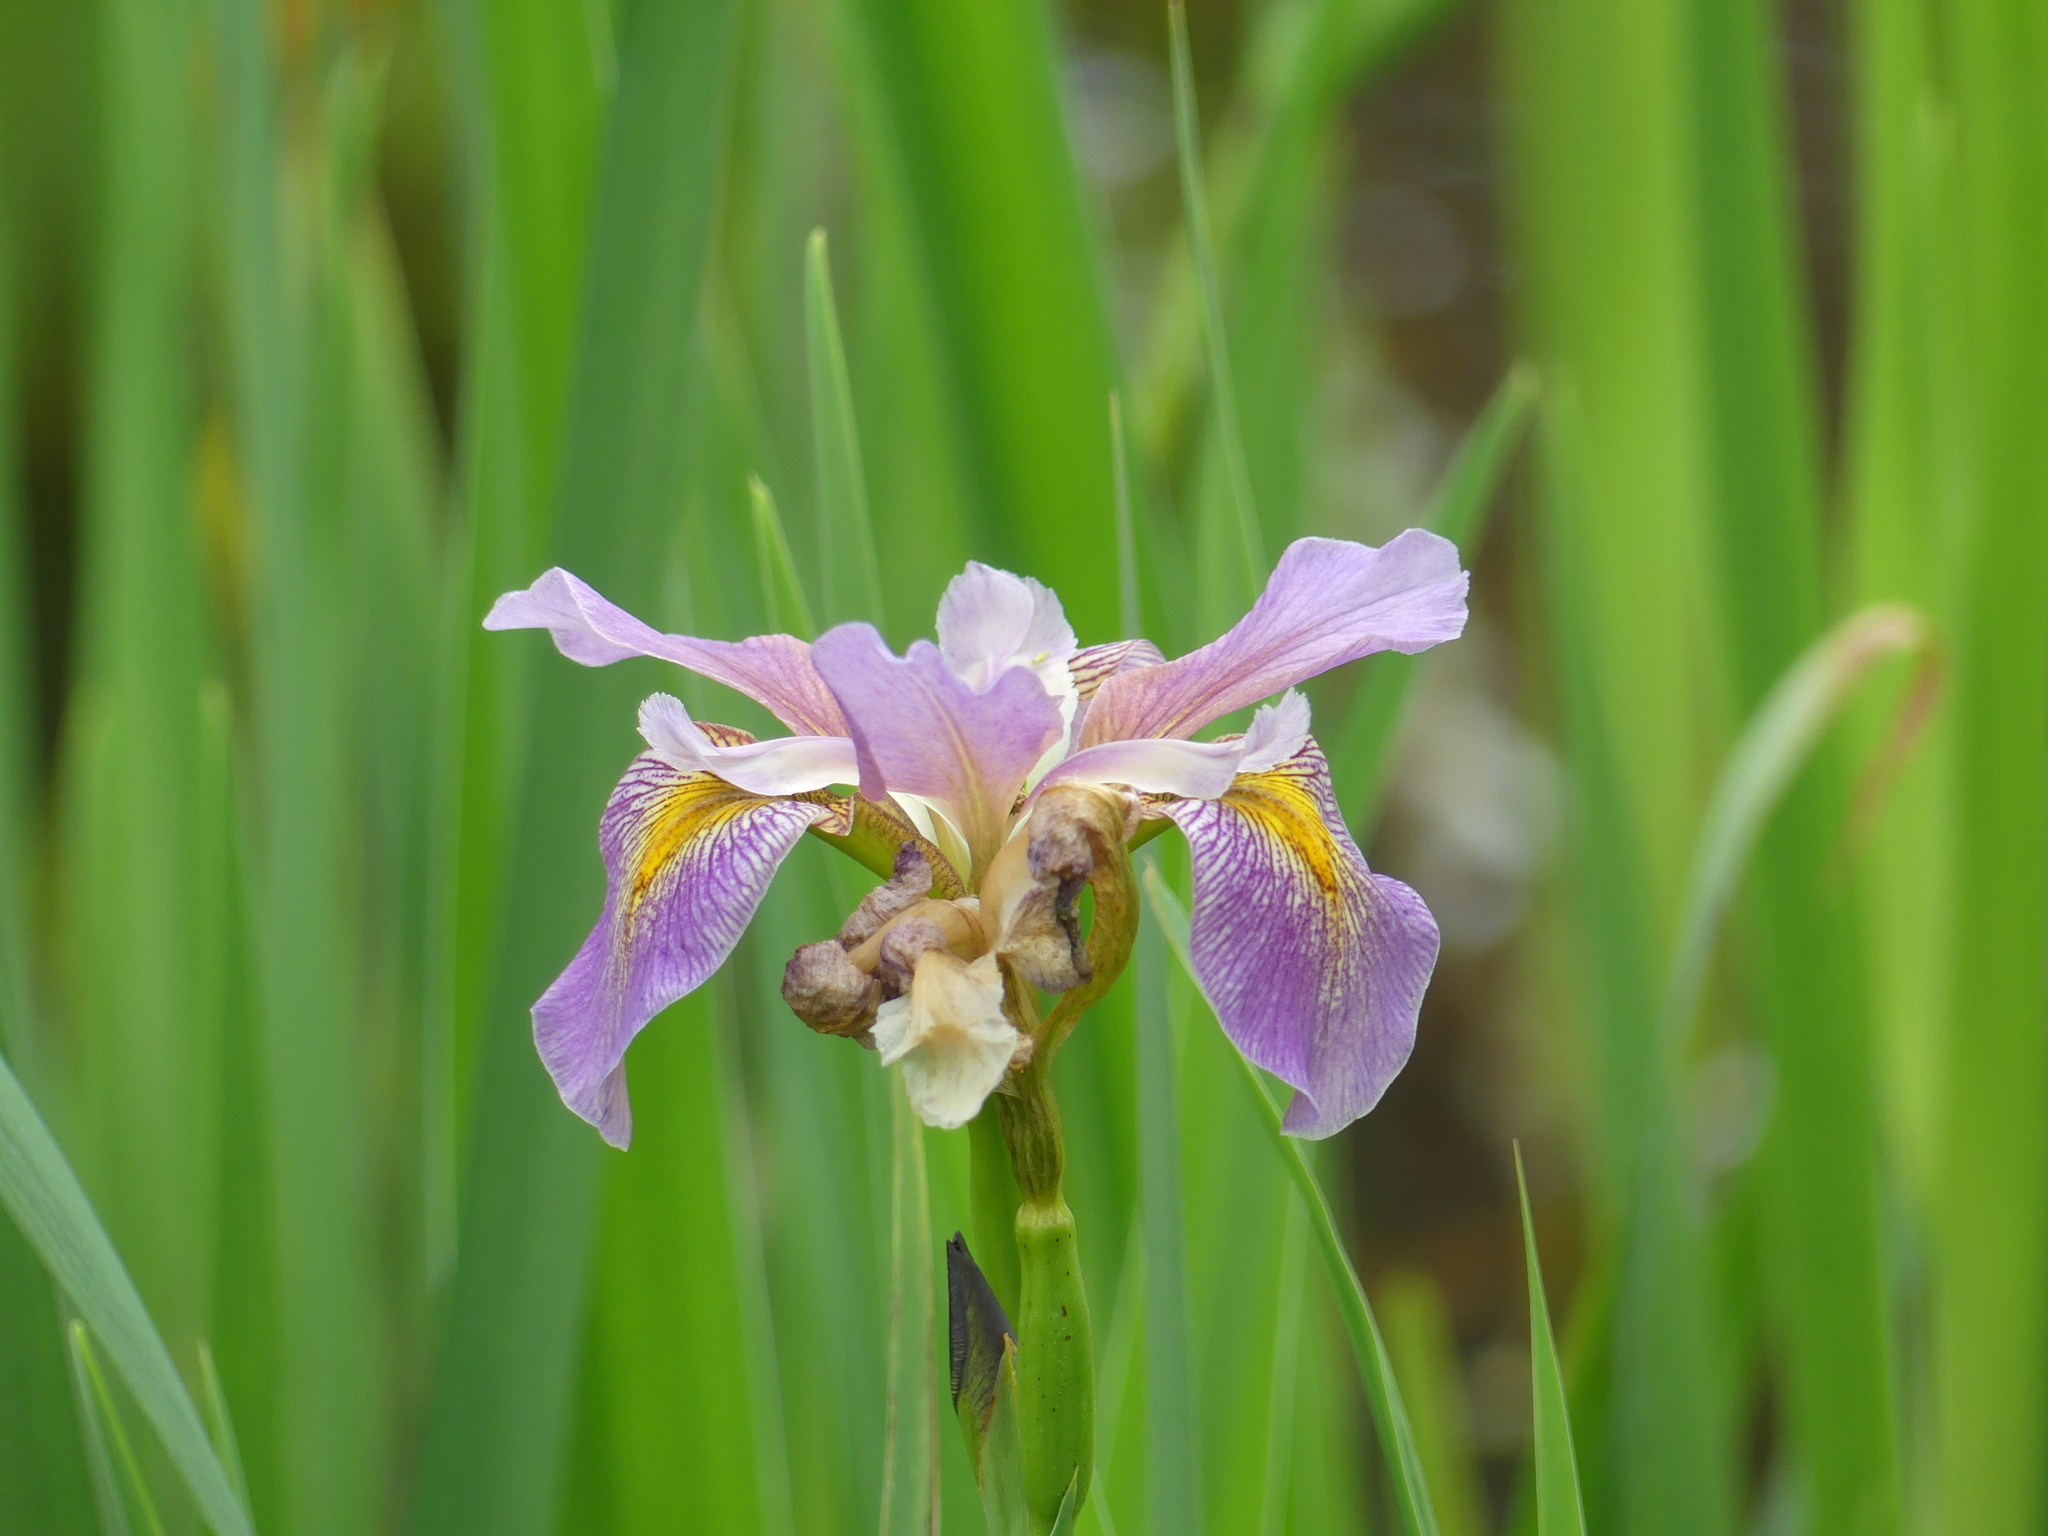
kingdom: Plantae
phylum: Tracheophyta
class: Liliopsida
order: Asparagales
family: Iridaceae
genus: Iris
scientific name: Iris virginica
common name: Southern blue flag
